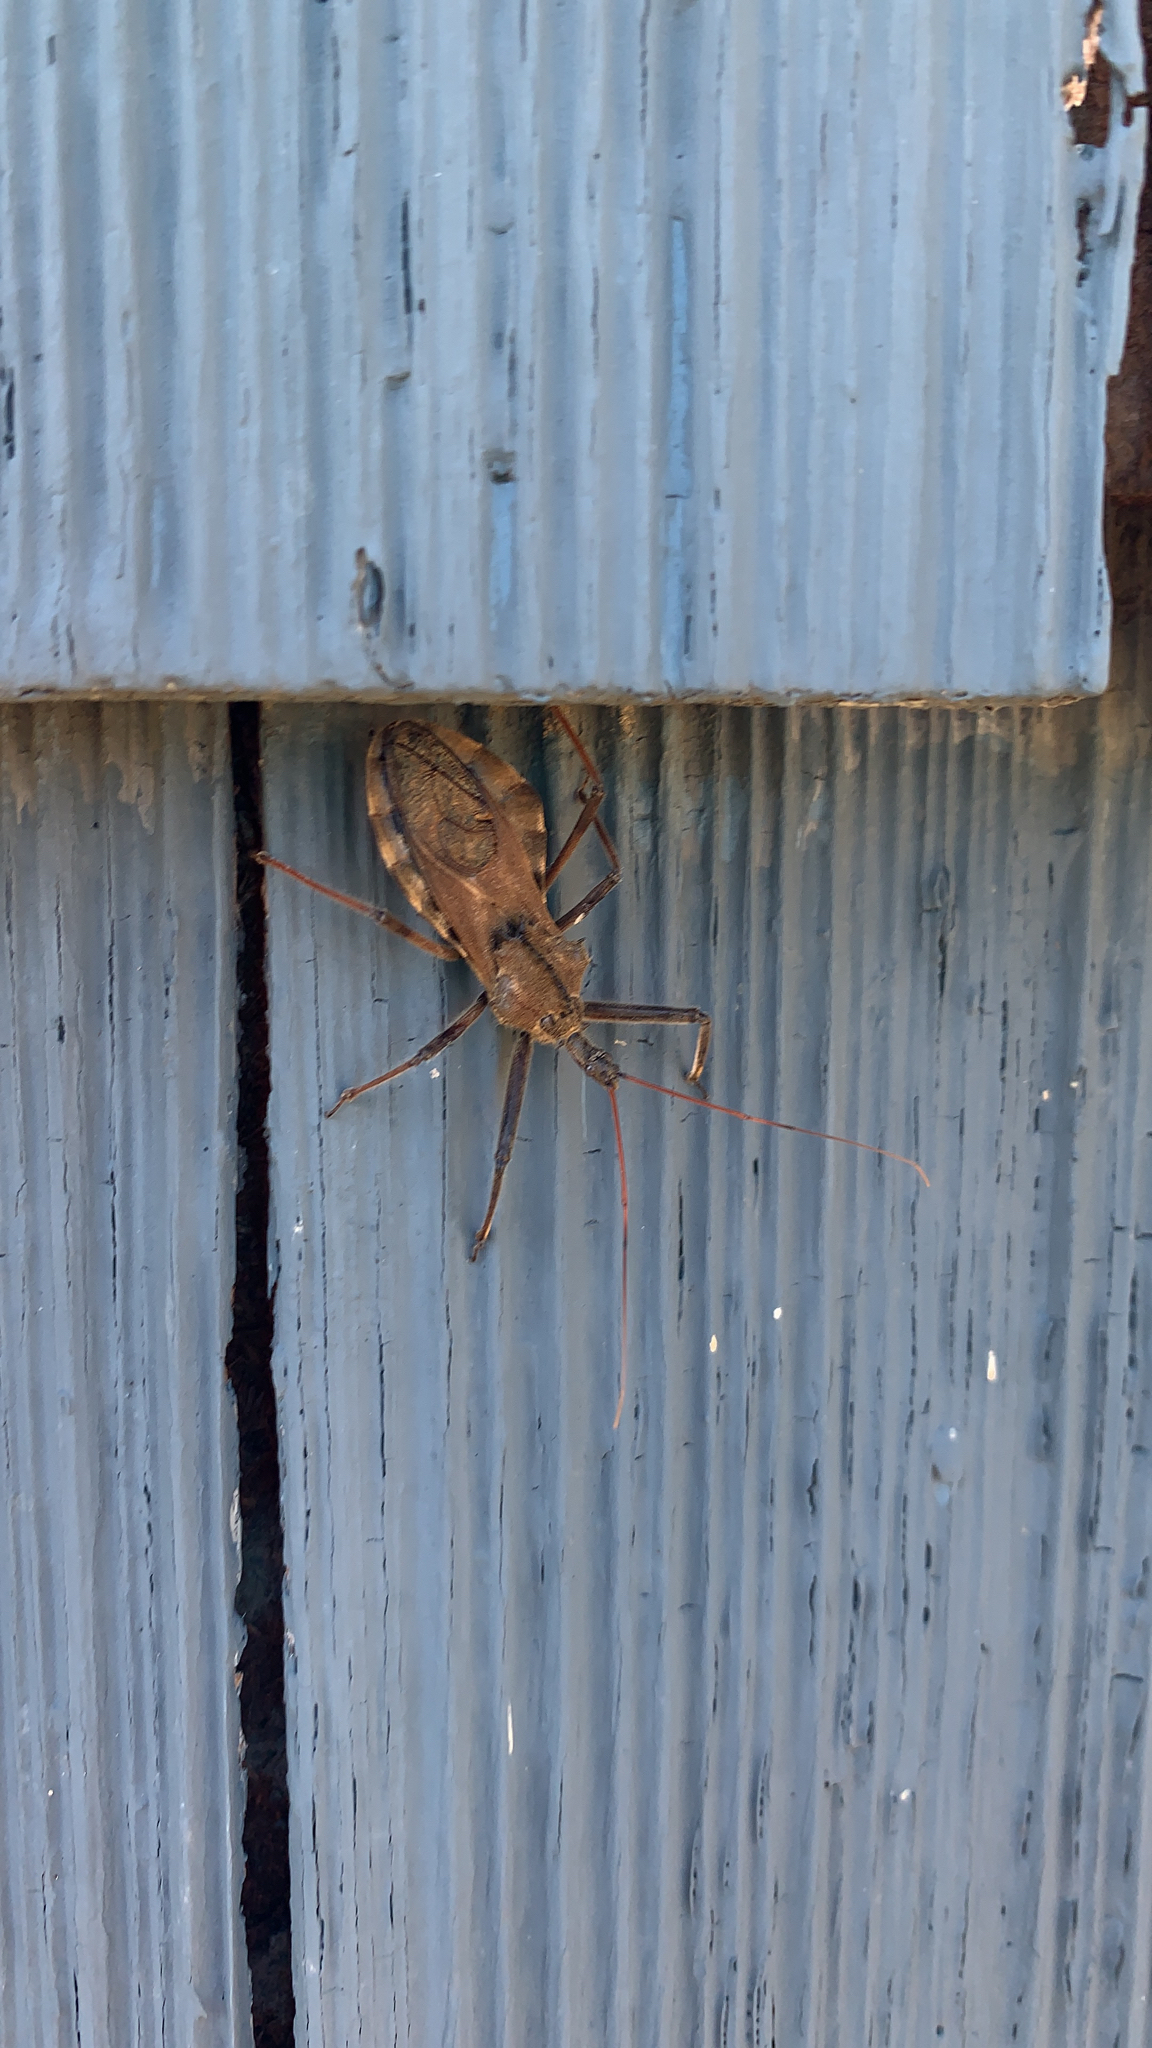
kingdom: Animalia
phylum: Arthropoda
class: Insecta
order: Hemiptera
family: Reduviidae
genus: Arilus
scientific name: Arilus cristatus
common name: North american wheel bug
